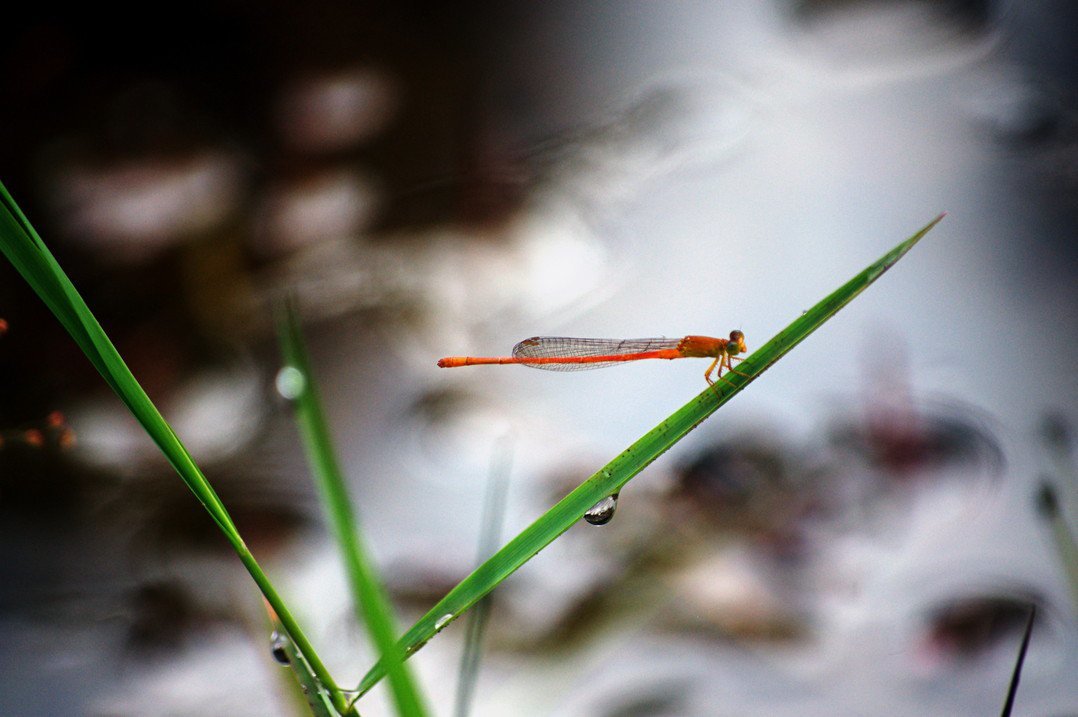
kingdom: Animalia
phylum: Arthropoda
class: Insecta
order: Odonata
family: Coenagrionidae
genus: Ceriagrion
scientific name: Ceriagrion rubiae
